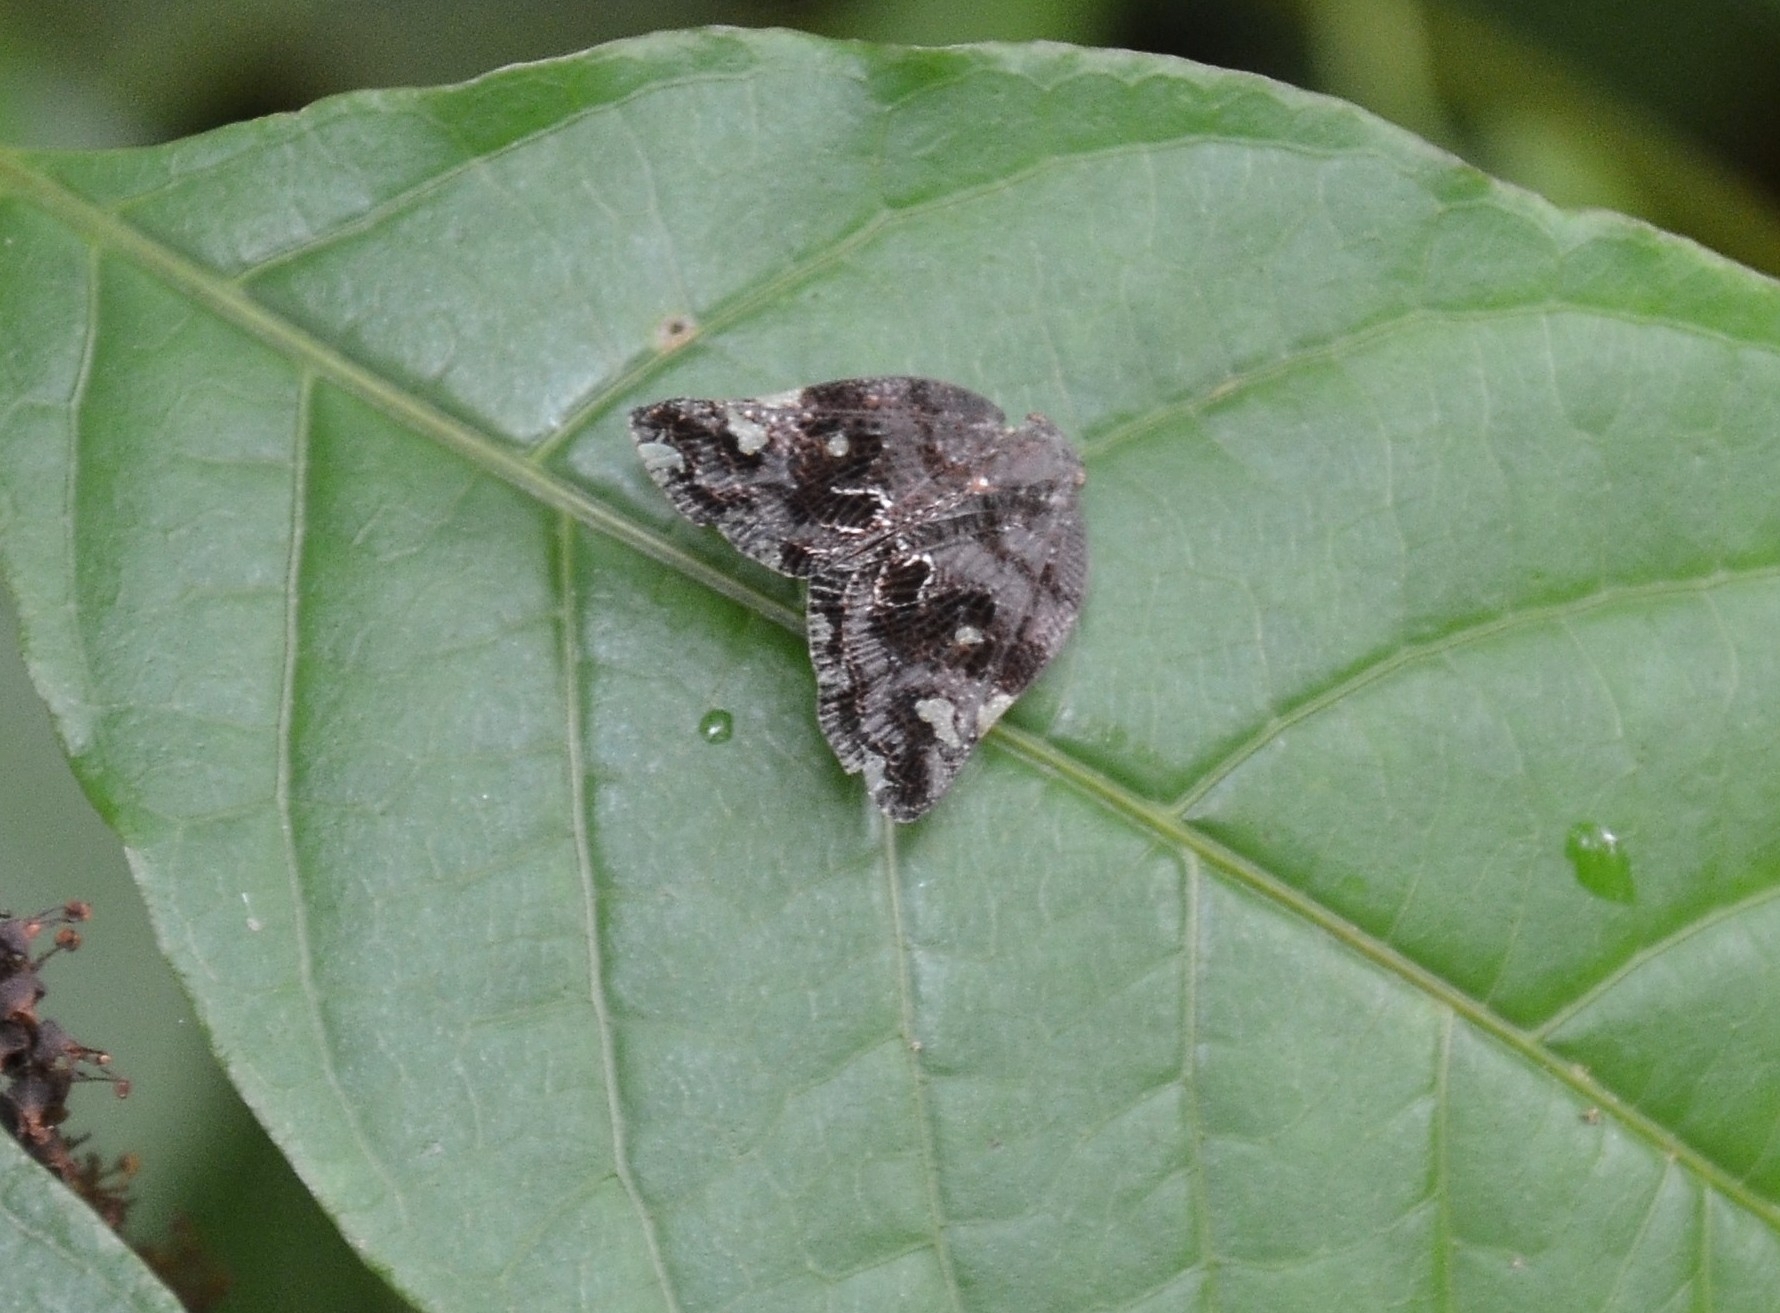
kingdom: Animalia
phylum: Arthropoda
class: Insecta
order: Hemiptera
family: Ricaniidae
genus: Ricania
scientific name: Ricania speculum
